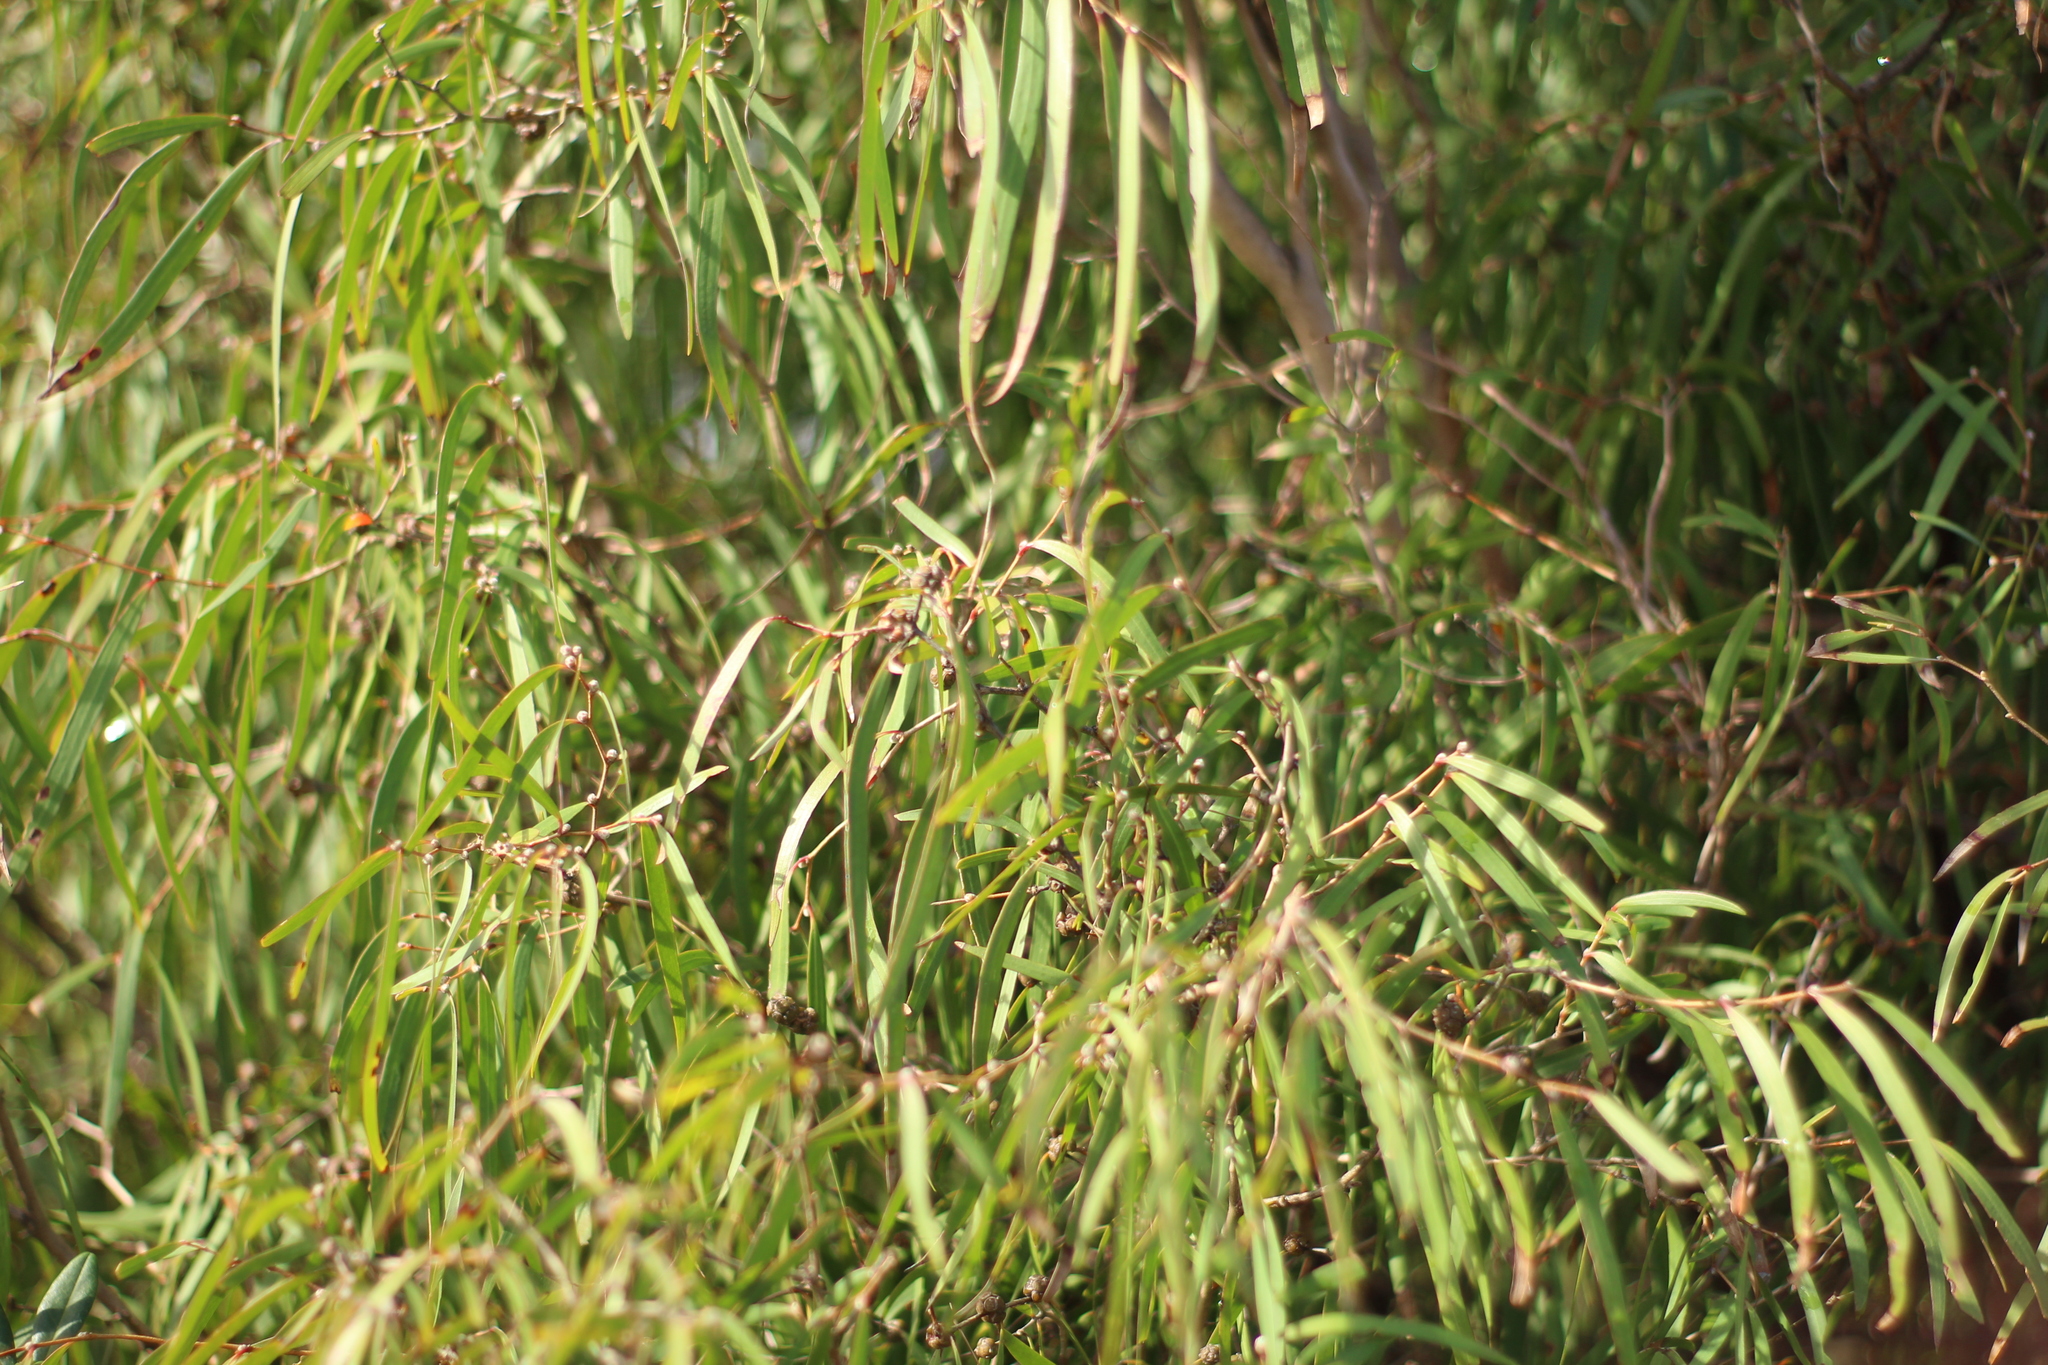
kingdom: Plantae
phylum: Tracheophyta
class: Magnoliopsida
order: Myrtales
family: Myrtaceae
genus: Agonis
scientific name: Agonis flexuosa
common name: Willow myrtle
